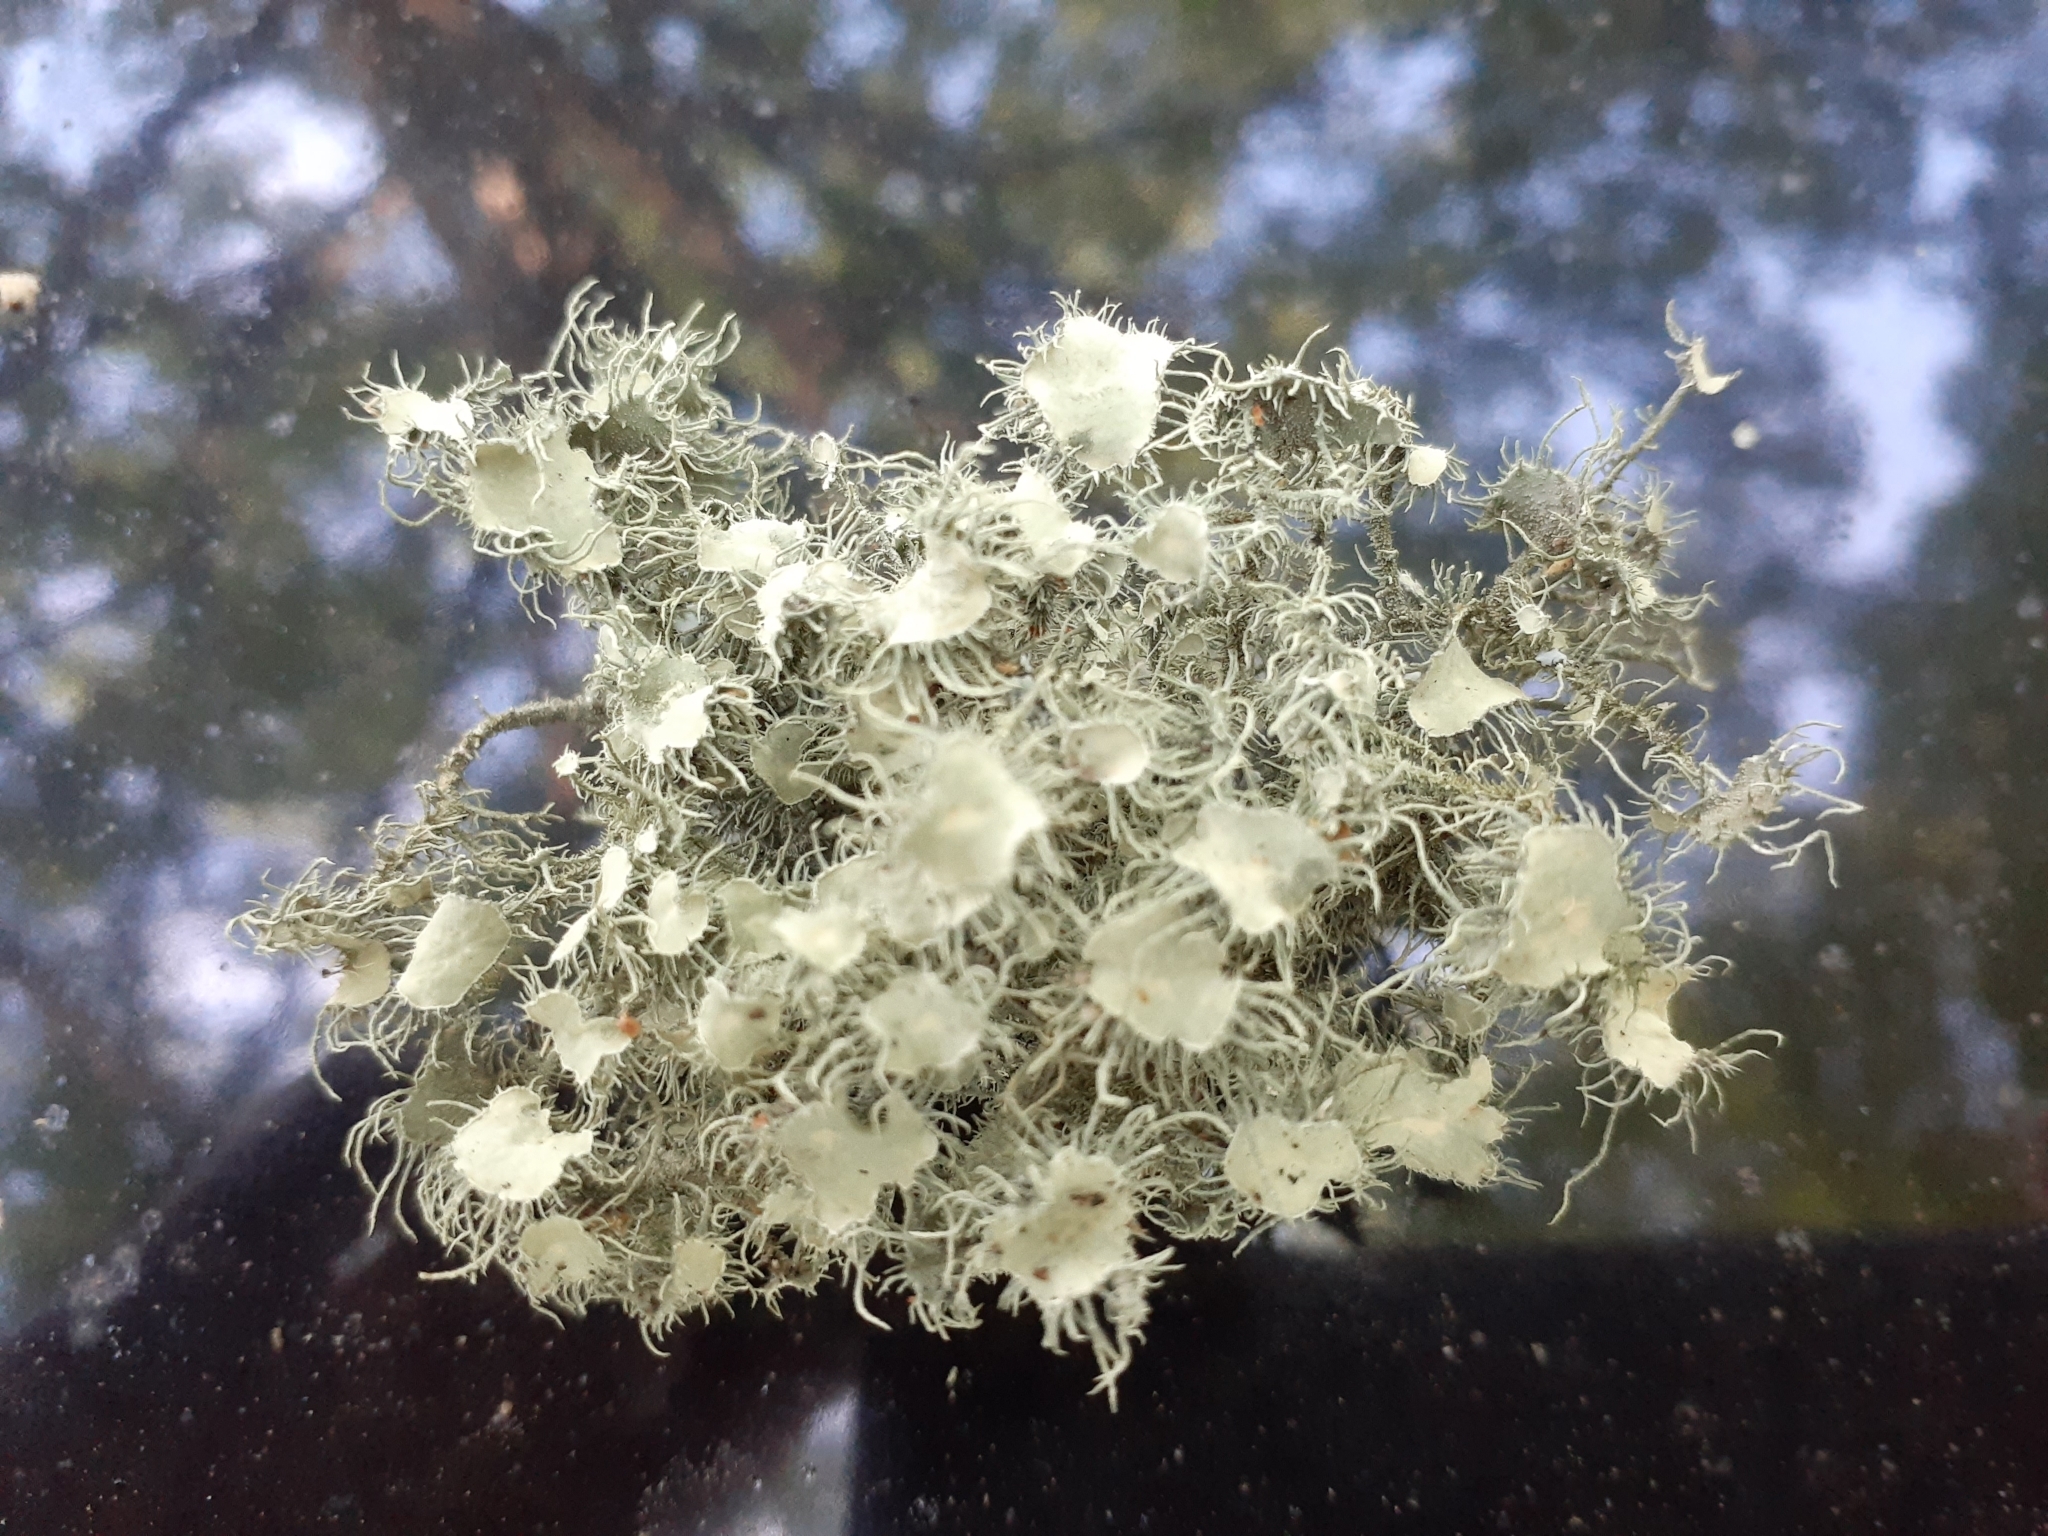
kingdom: Fungi
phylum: Ascomycota
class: Lecanoromycetes
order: Lecanorales
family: Parmeliaceae
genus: Usnea
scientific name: Usnea strigosa
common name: Bushy beard lichen
